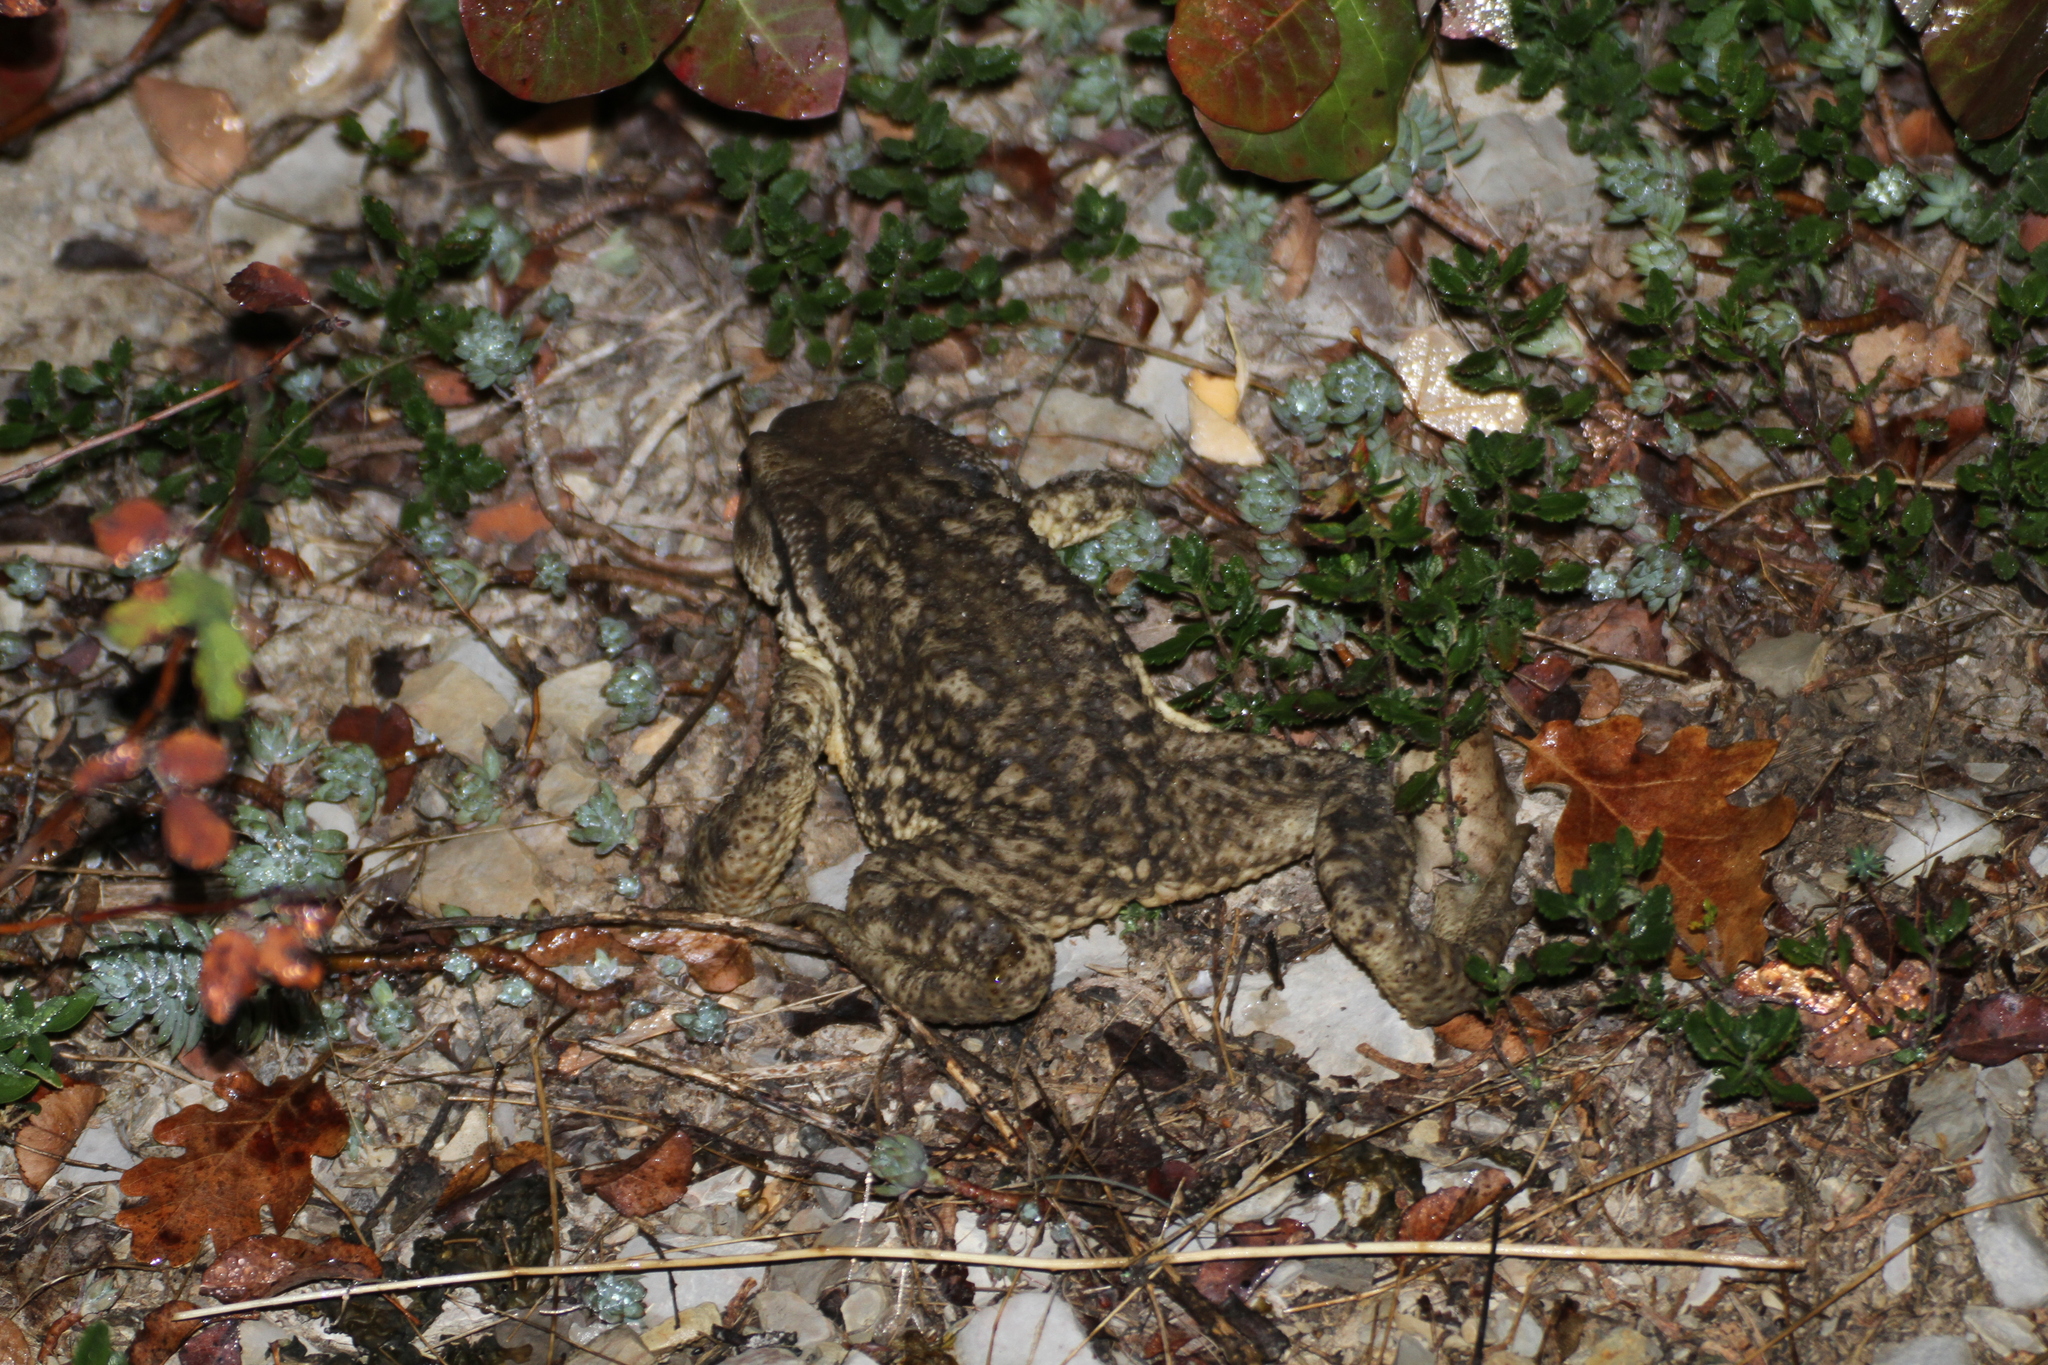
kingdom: Animalia
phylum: Chordata
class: Amphibia
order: Anura
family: Bufonidae
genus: Bufo
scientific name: Bufo spinosus
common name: Western common toad
